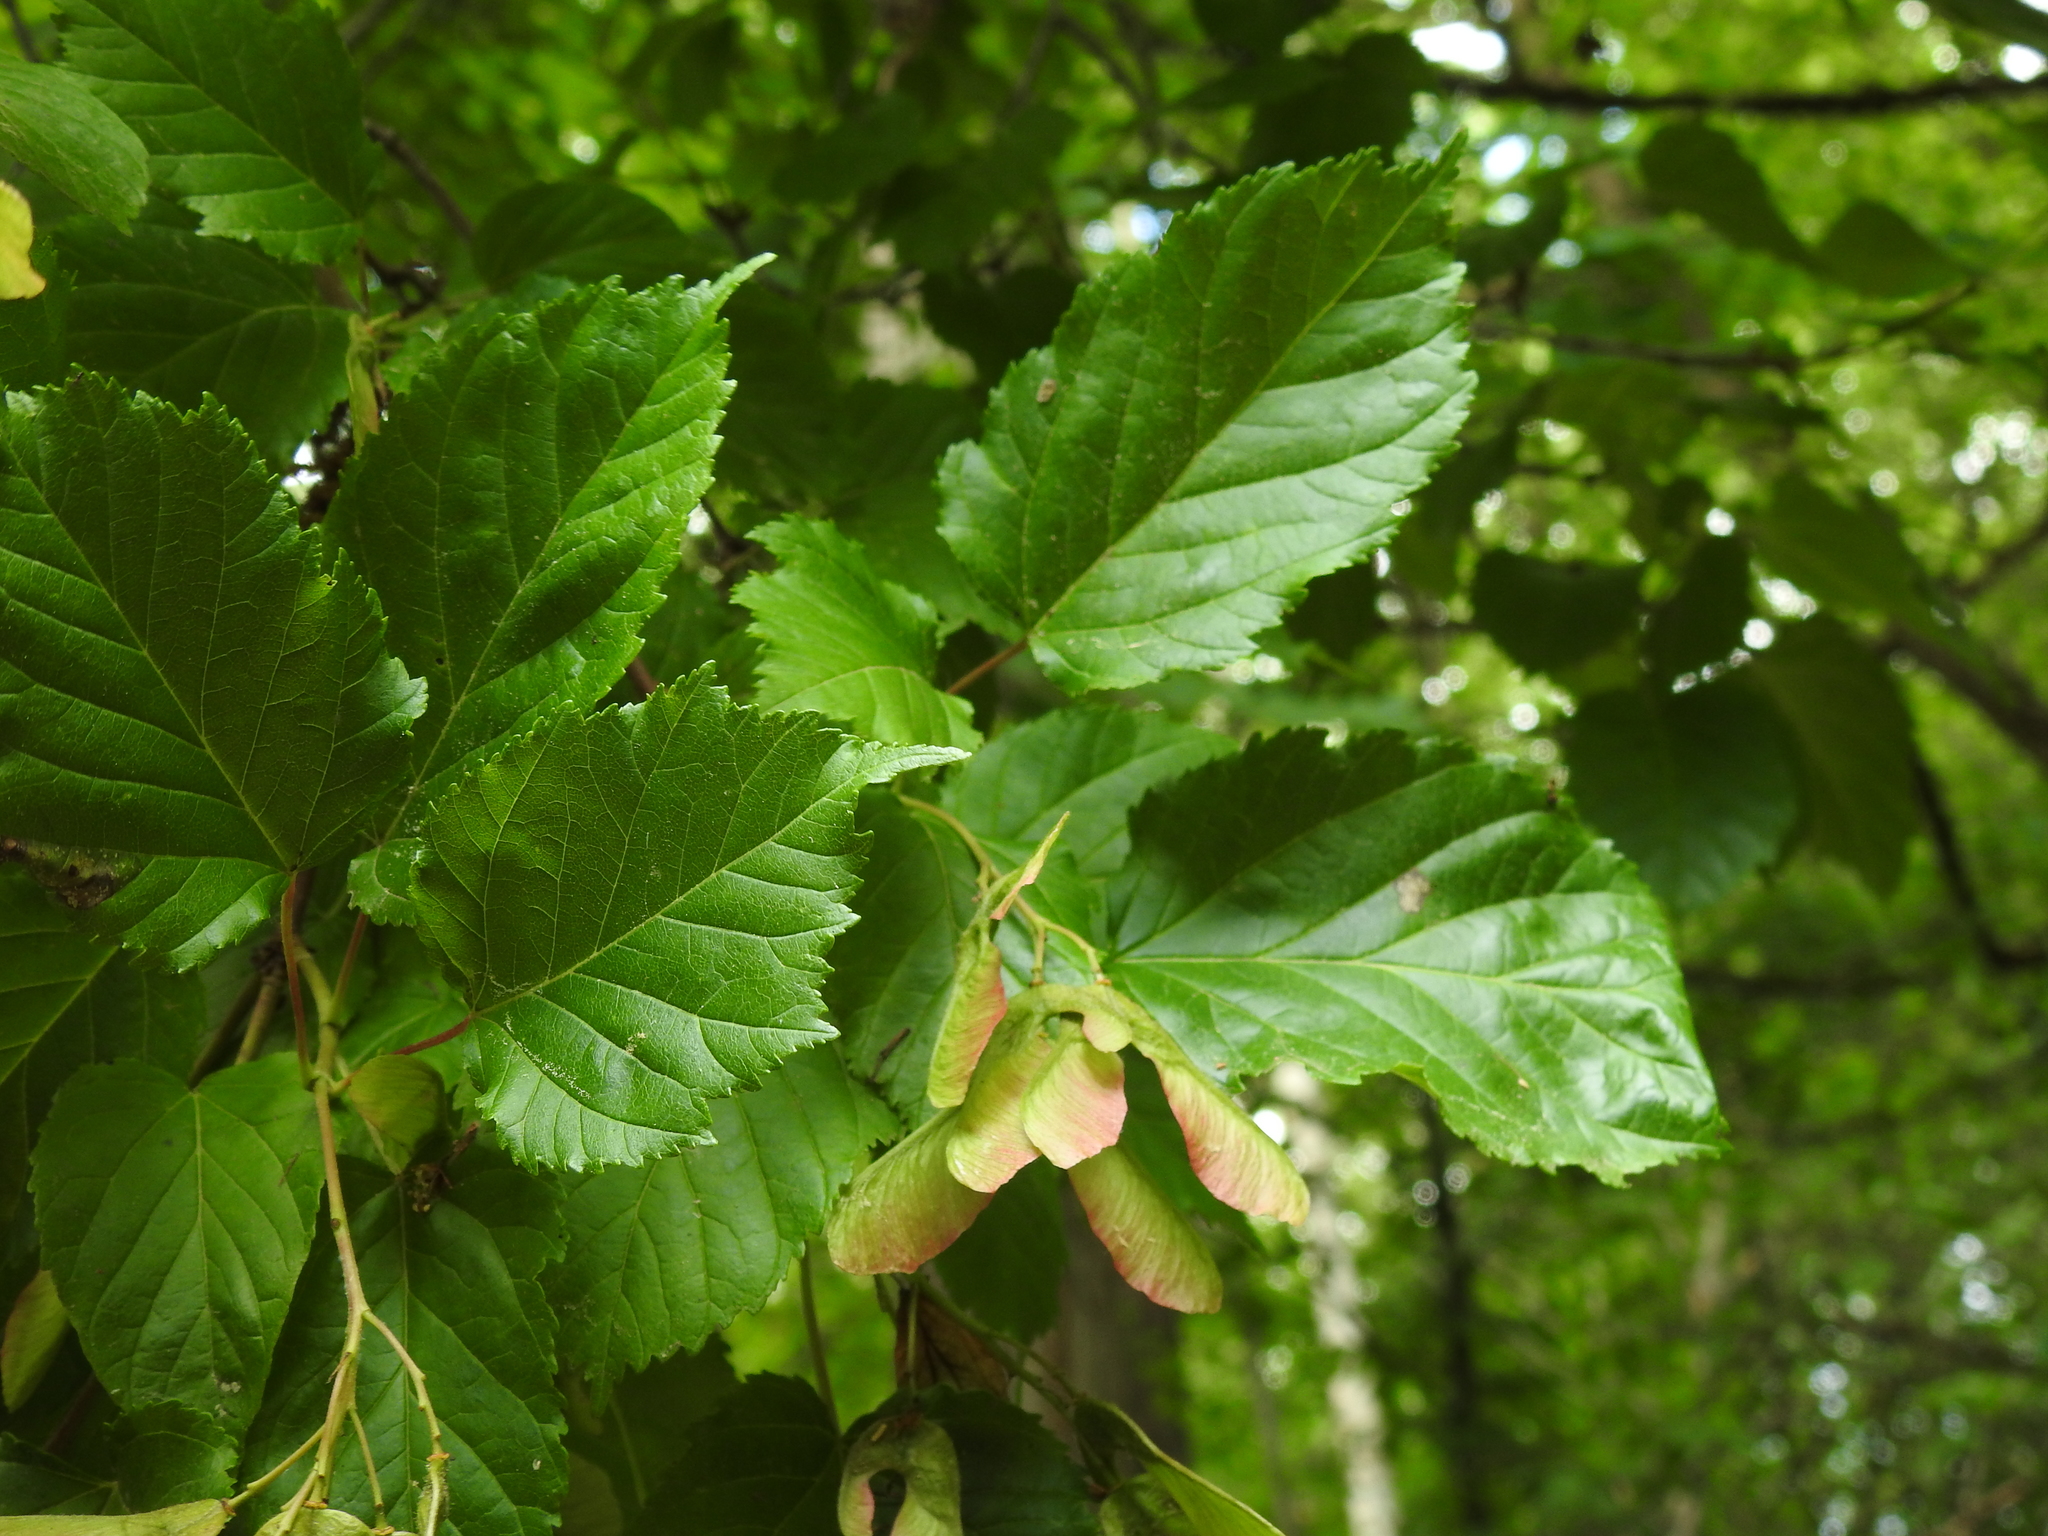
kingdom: Plantae
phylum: Tracheophyta
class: Magnoliopsida
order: Sapindales
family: Sapindaceae
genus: Acer
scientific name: Acer tataricum
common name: Tartar maple
